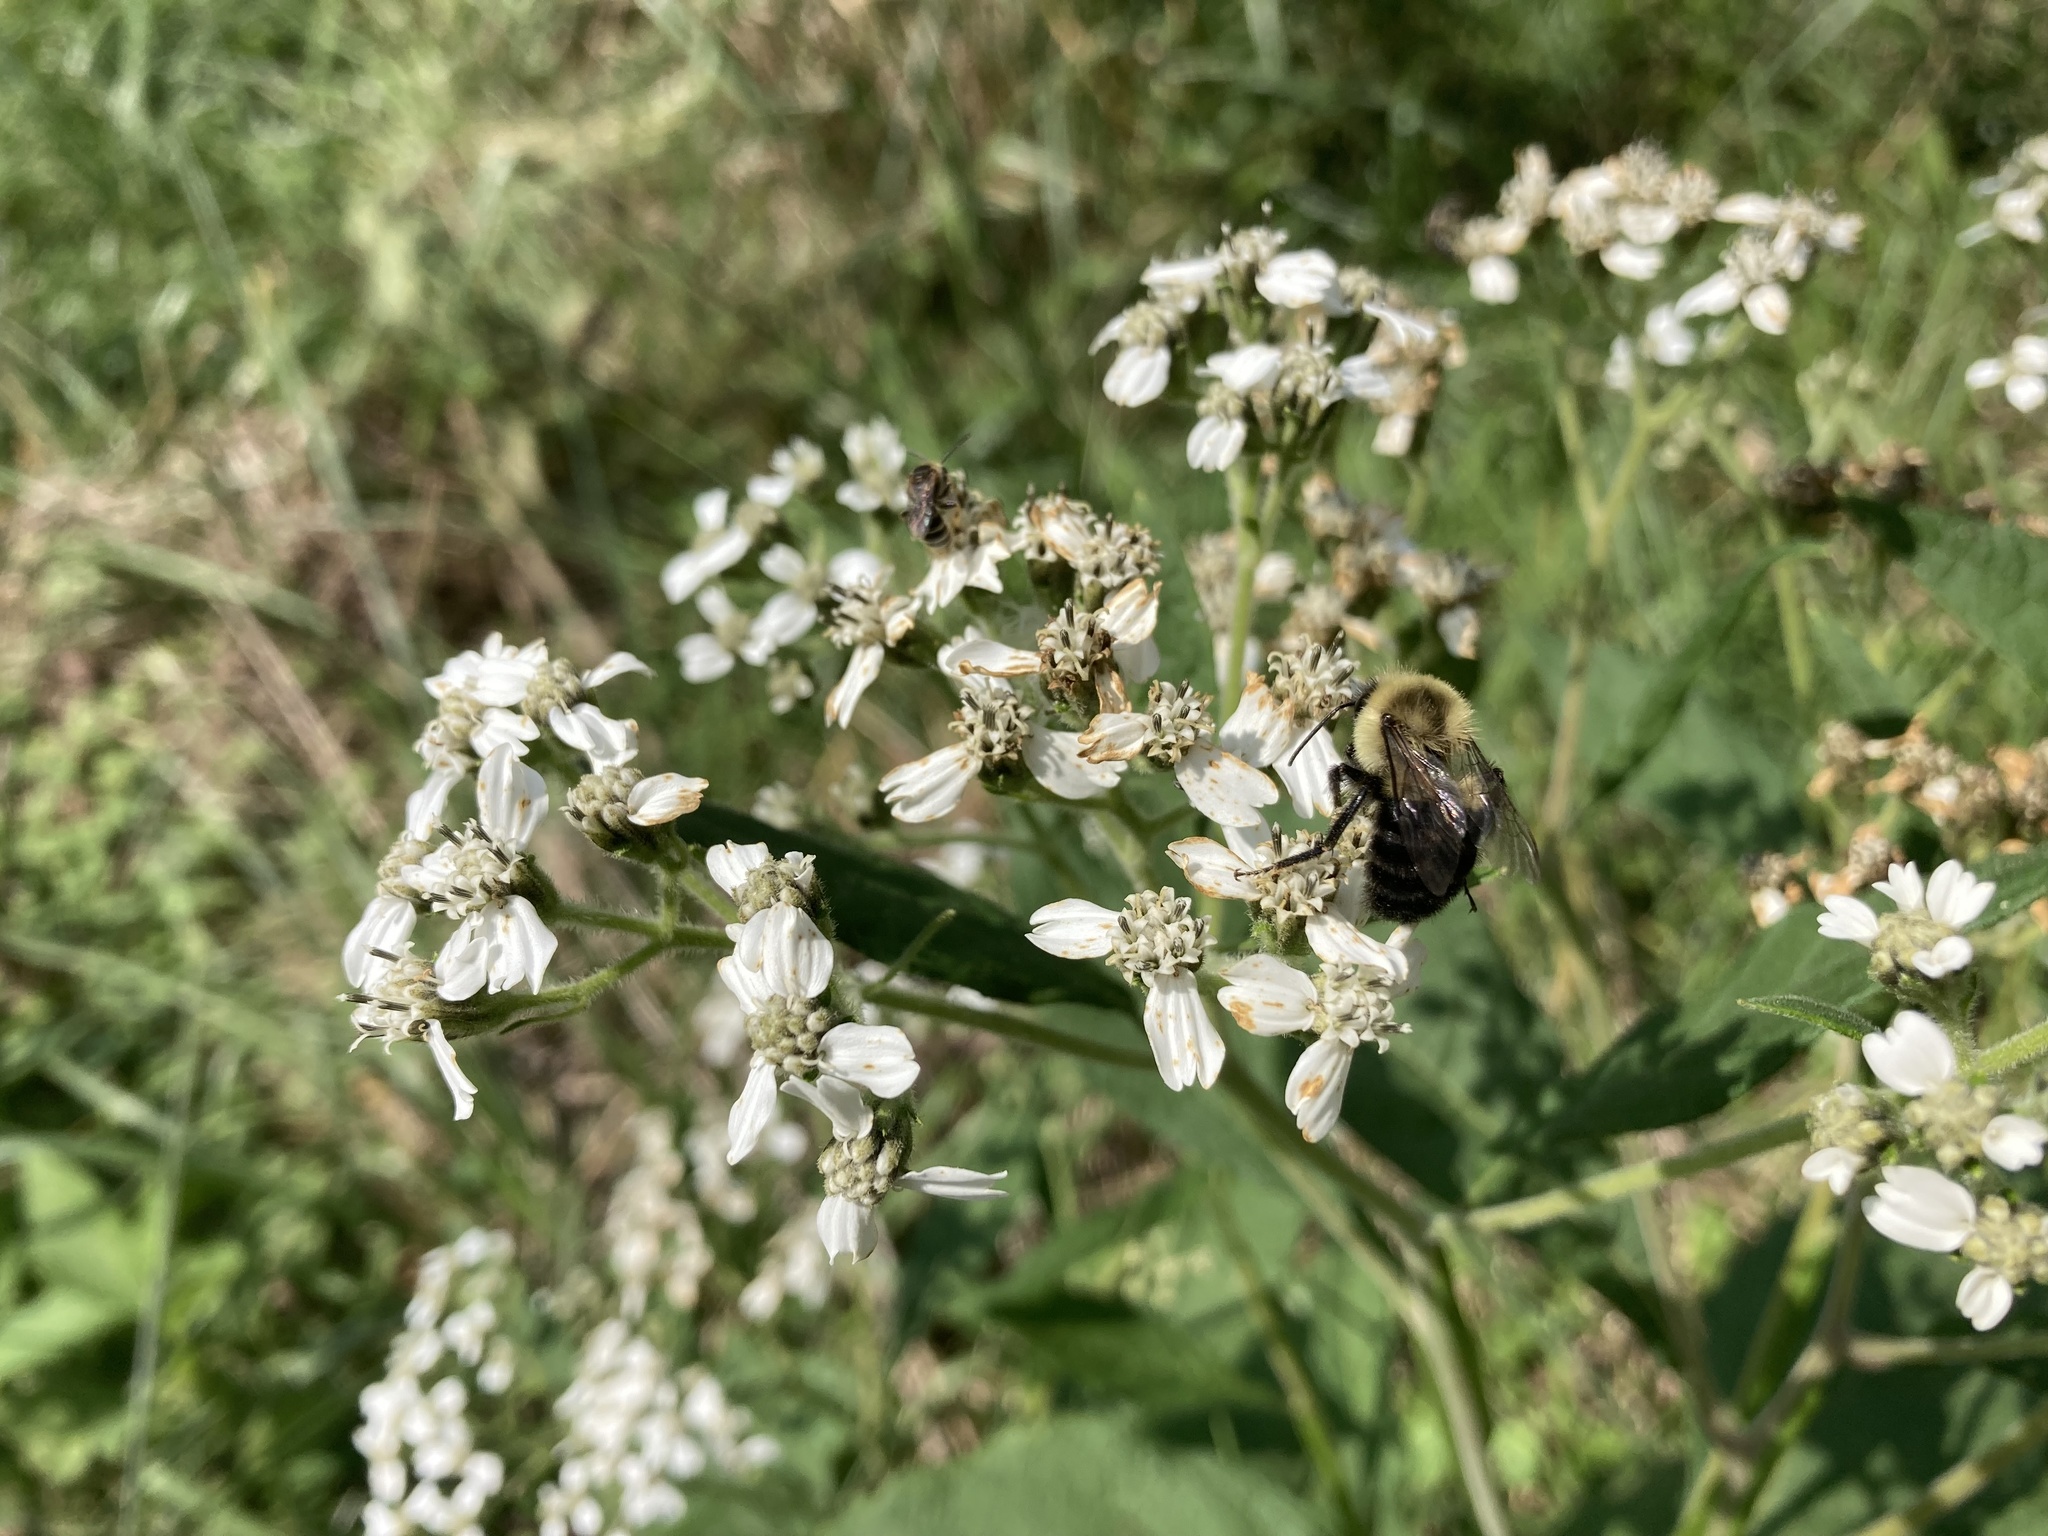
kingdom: Animalia
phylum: Arthropoda
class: Insecta
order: Hymenoptera
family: Apidae
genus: Bombus
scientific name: Bombus impatiens
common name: Common eastern bumble bee
